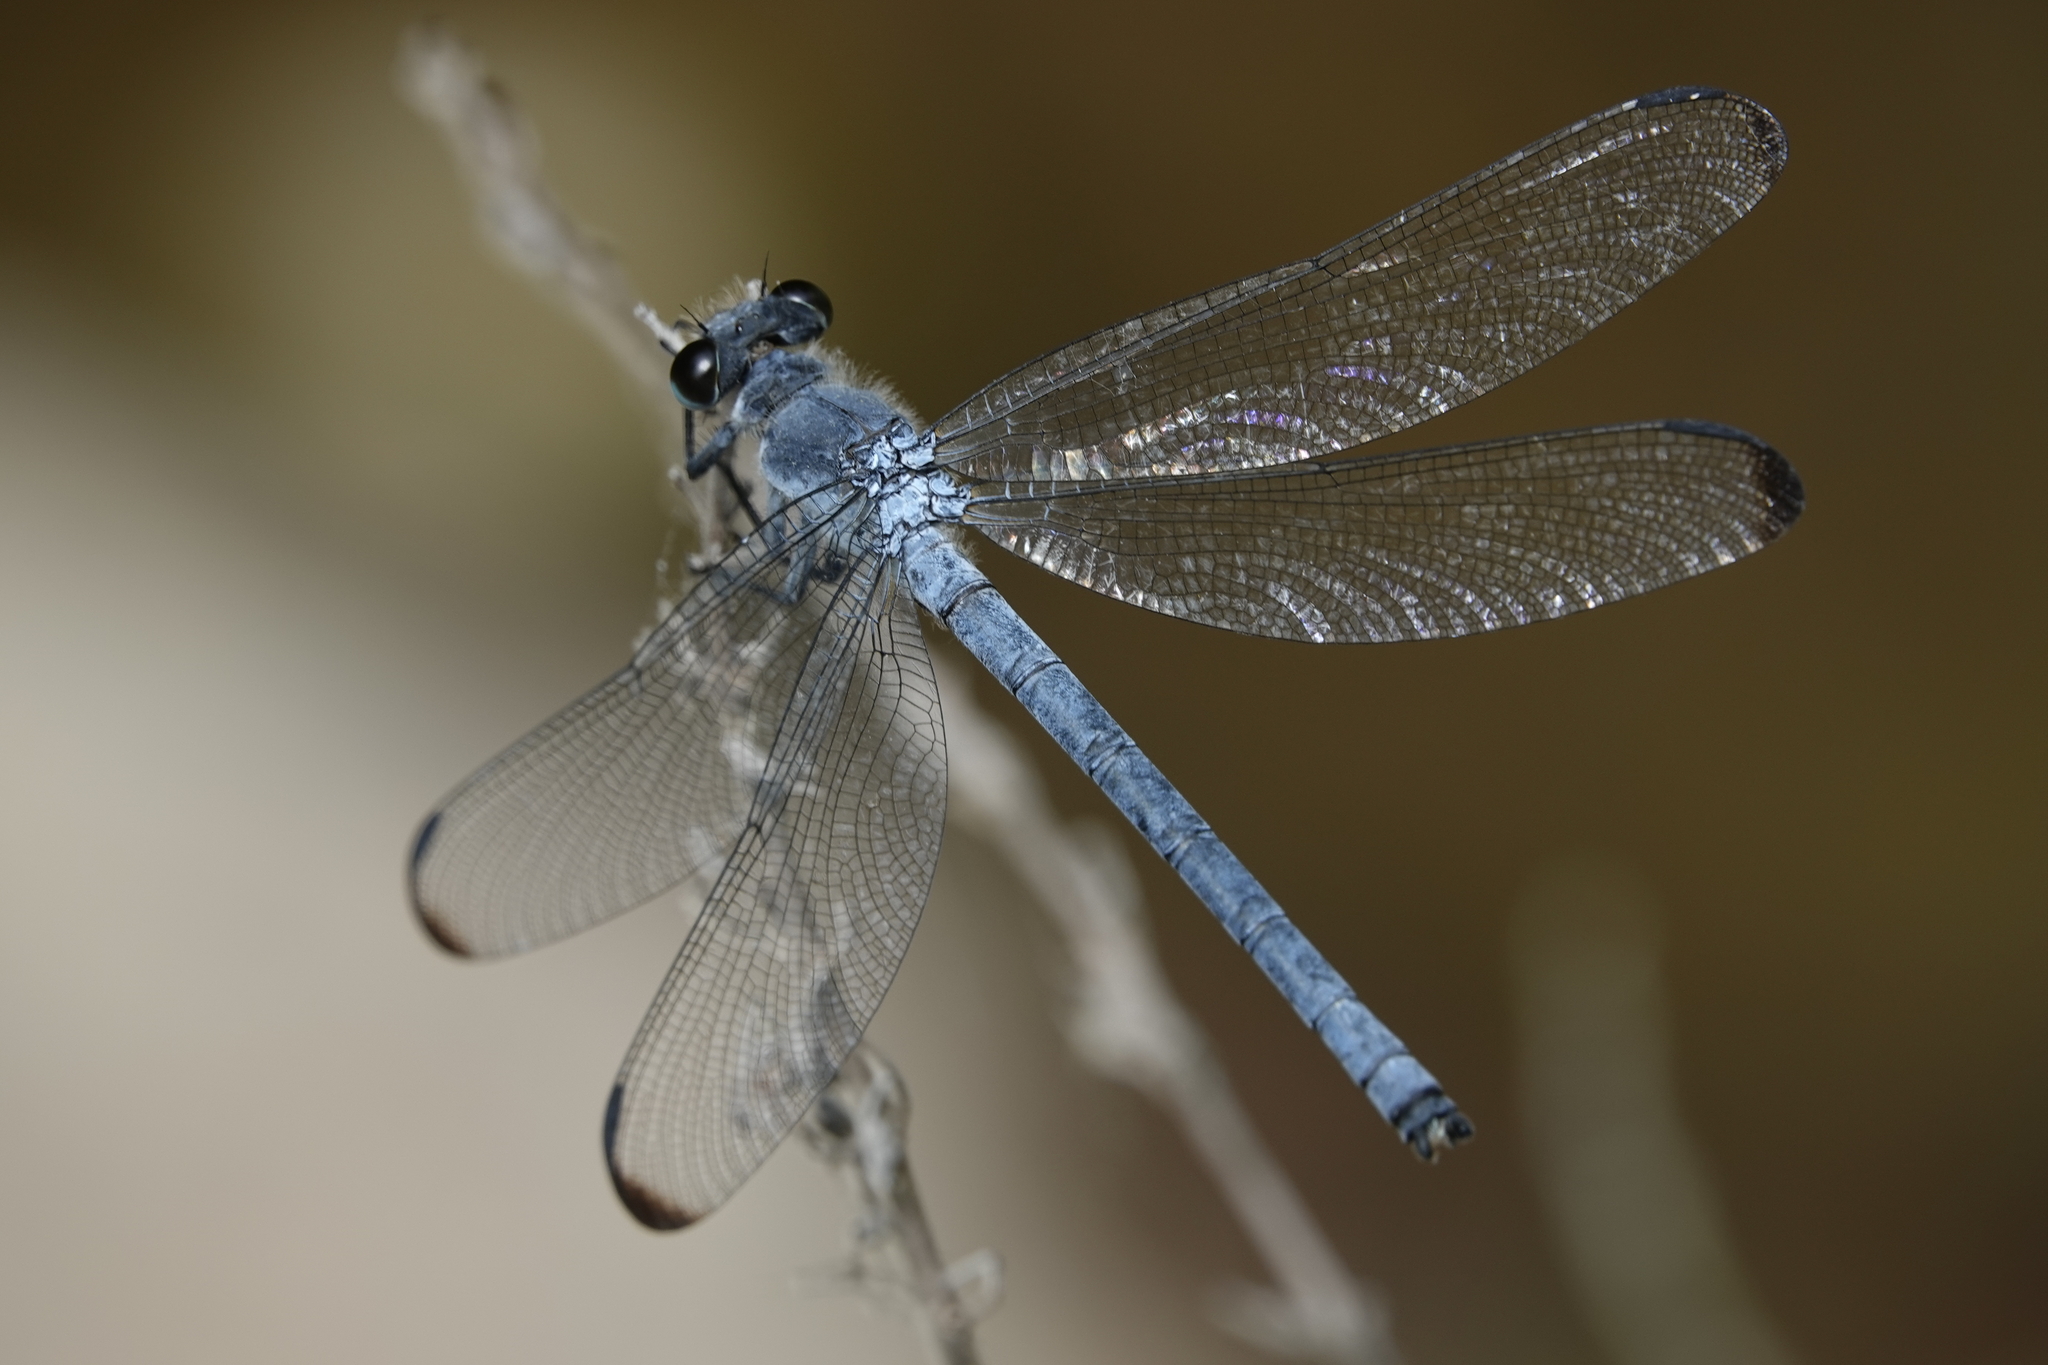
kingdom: Animalia
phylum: Arthropoda
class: Insecta
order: Odonata
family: Euphaeidae
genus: Epallage
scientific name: Epallage fatime
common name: Odalisque
